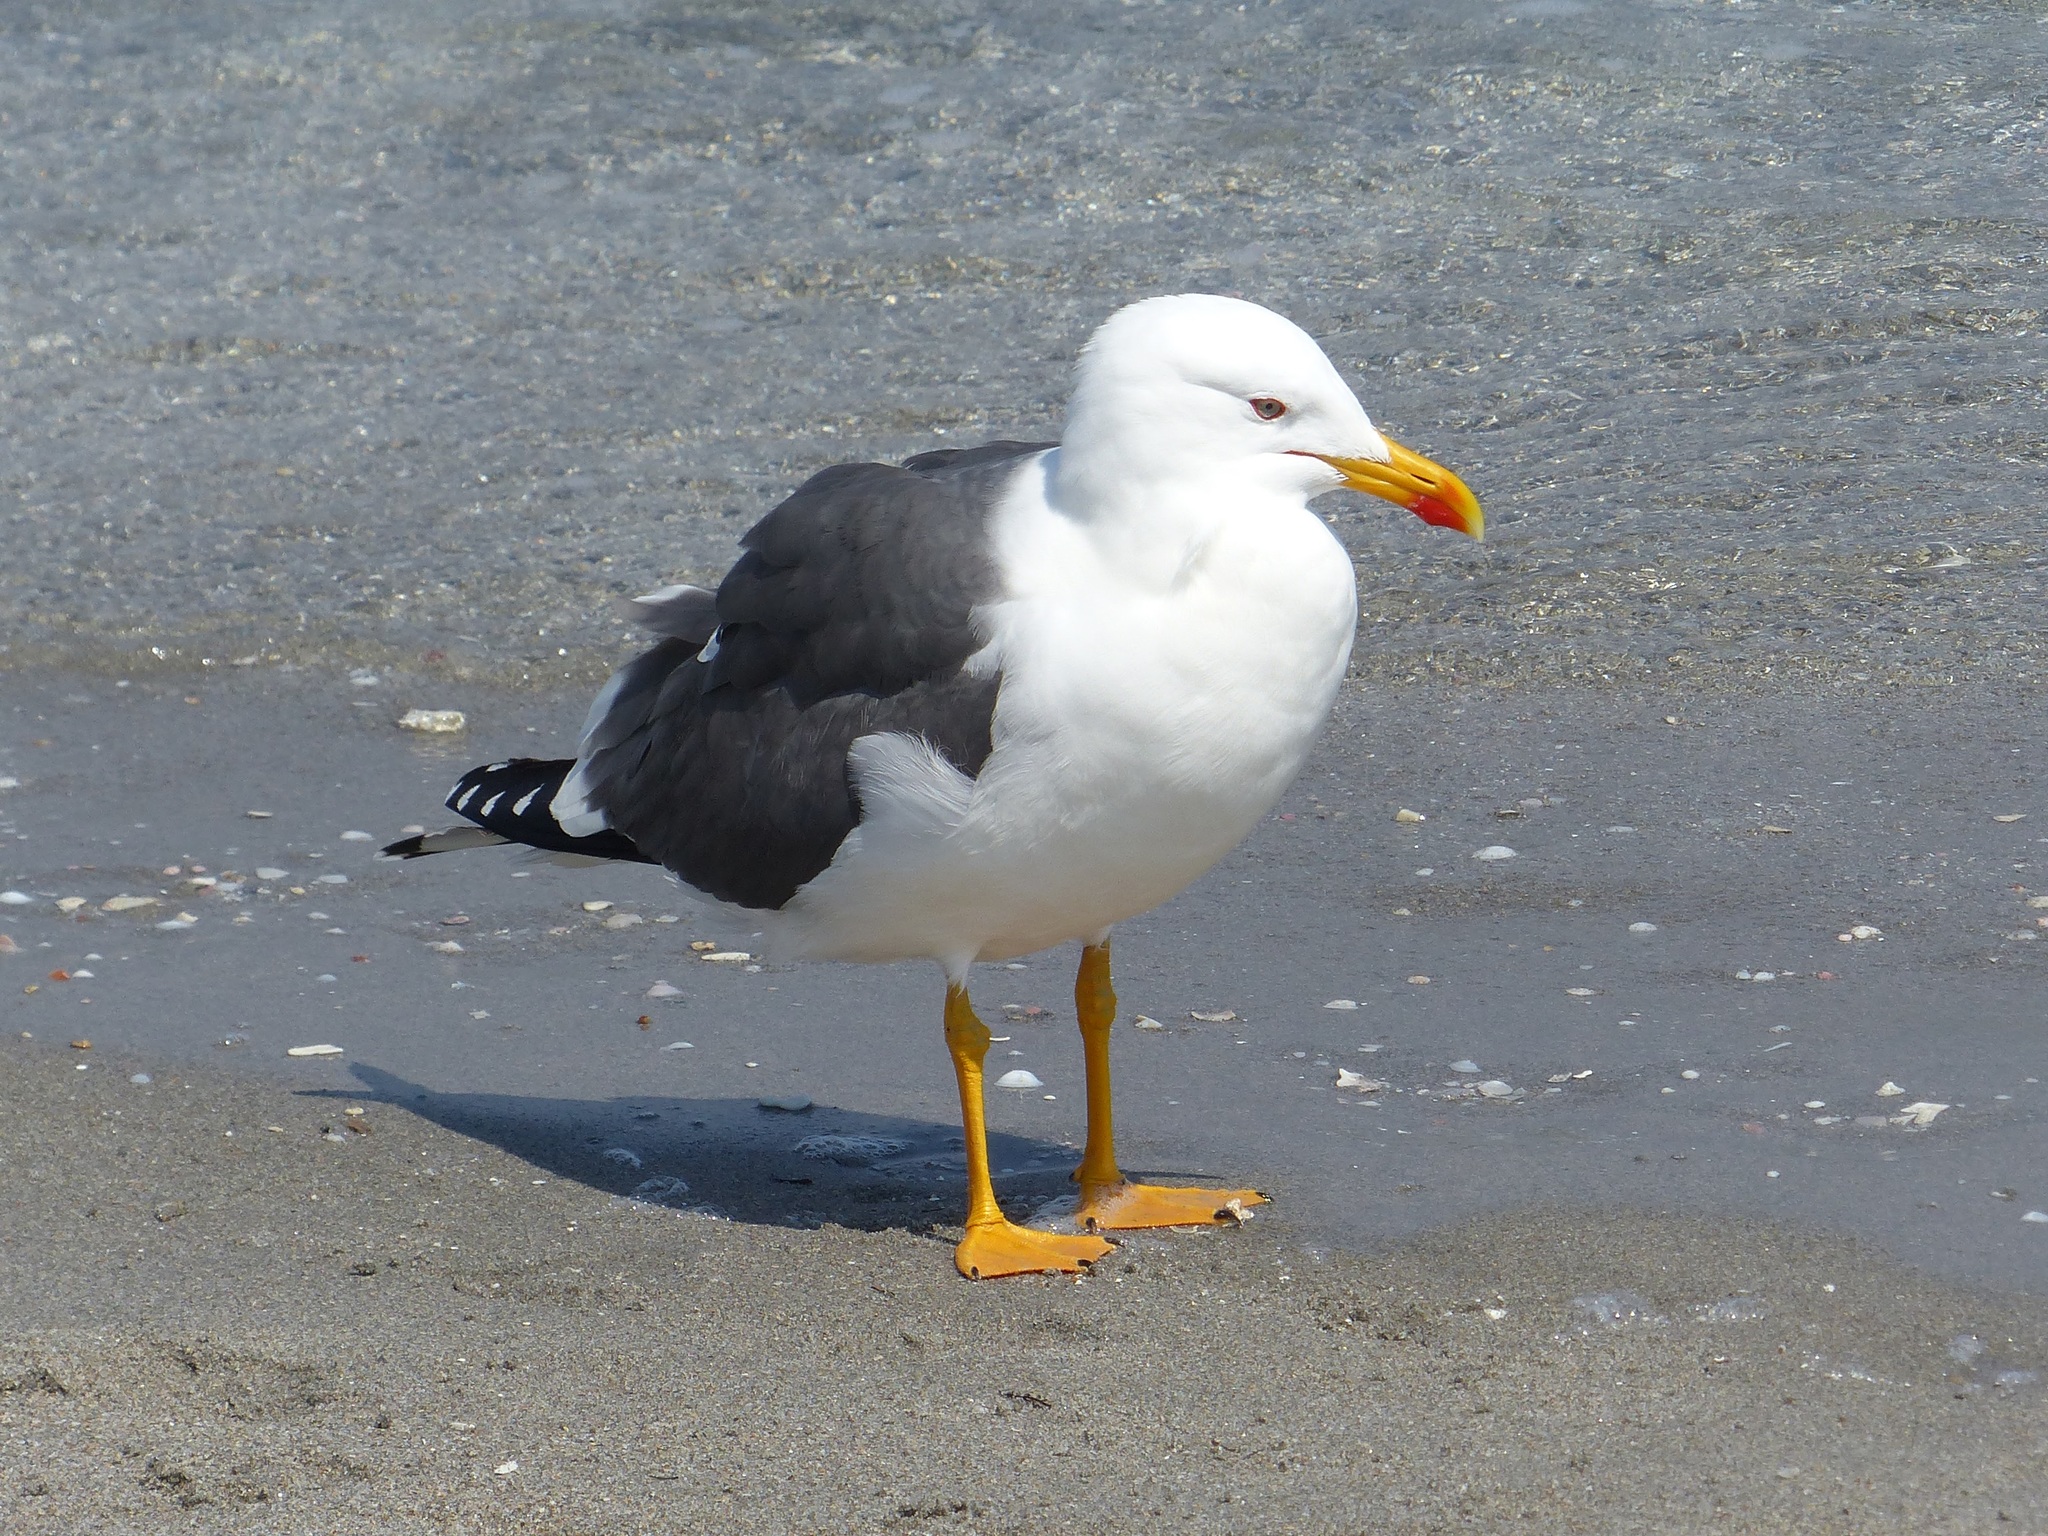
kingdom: Animalia
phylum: Chordata
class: Aves
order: Charadriiformes
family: Laridae
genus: Larus
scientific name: Larus fuscus
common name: Lesser black-backed gull
